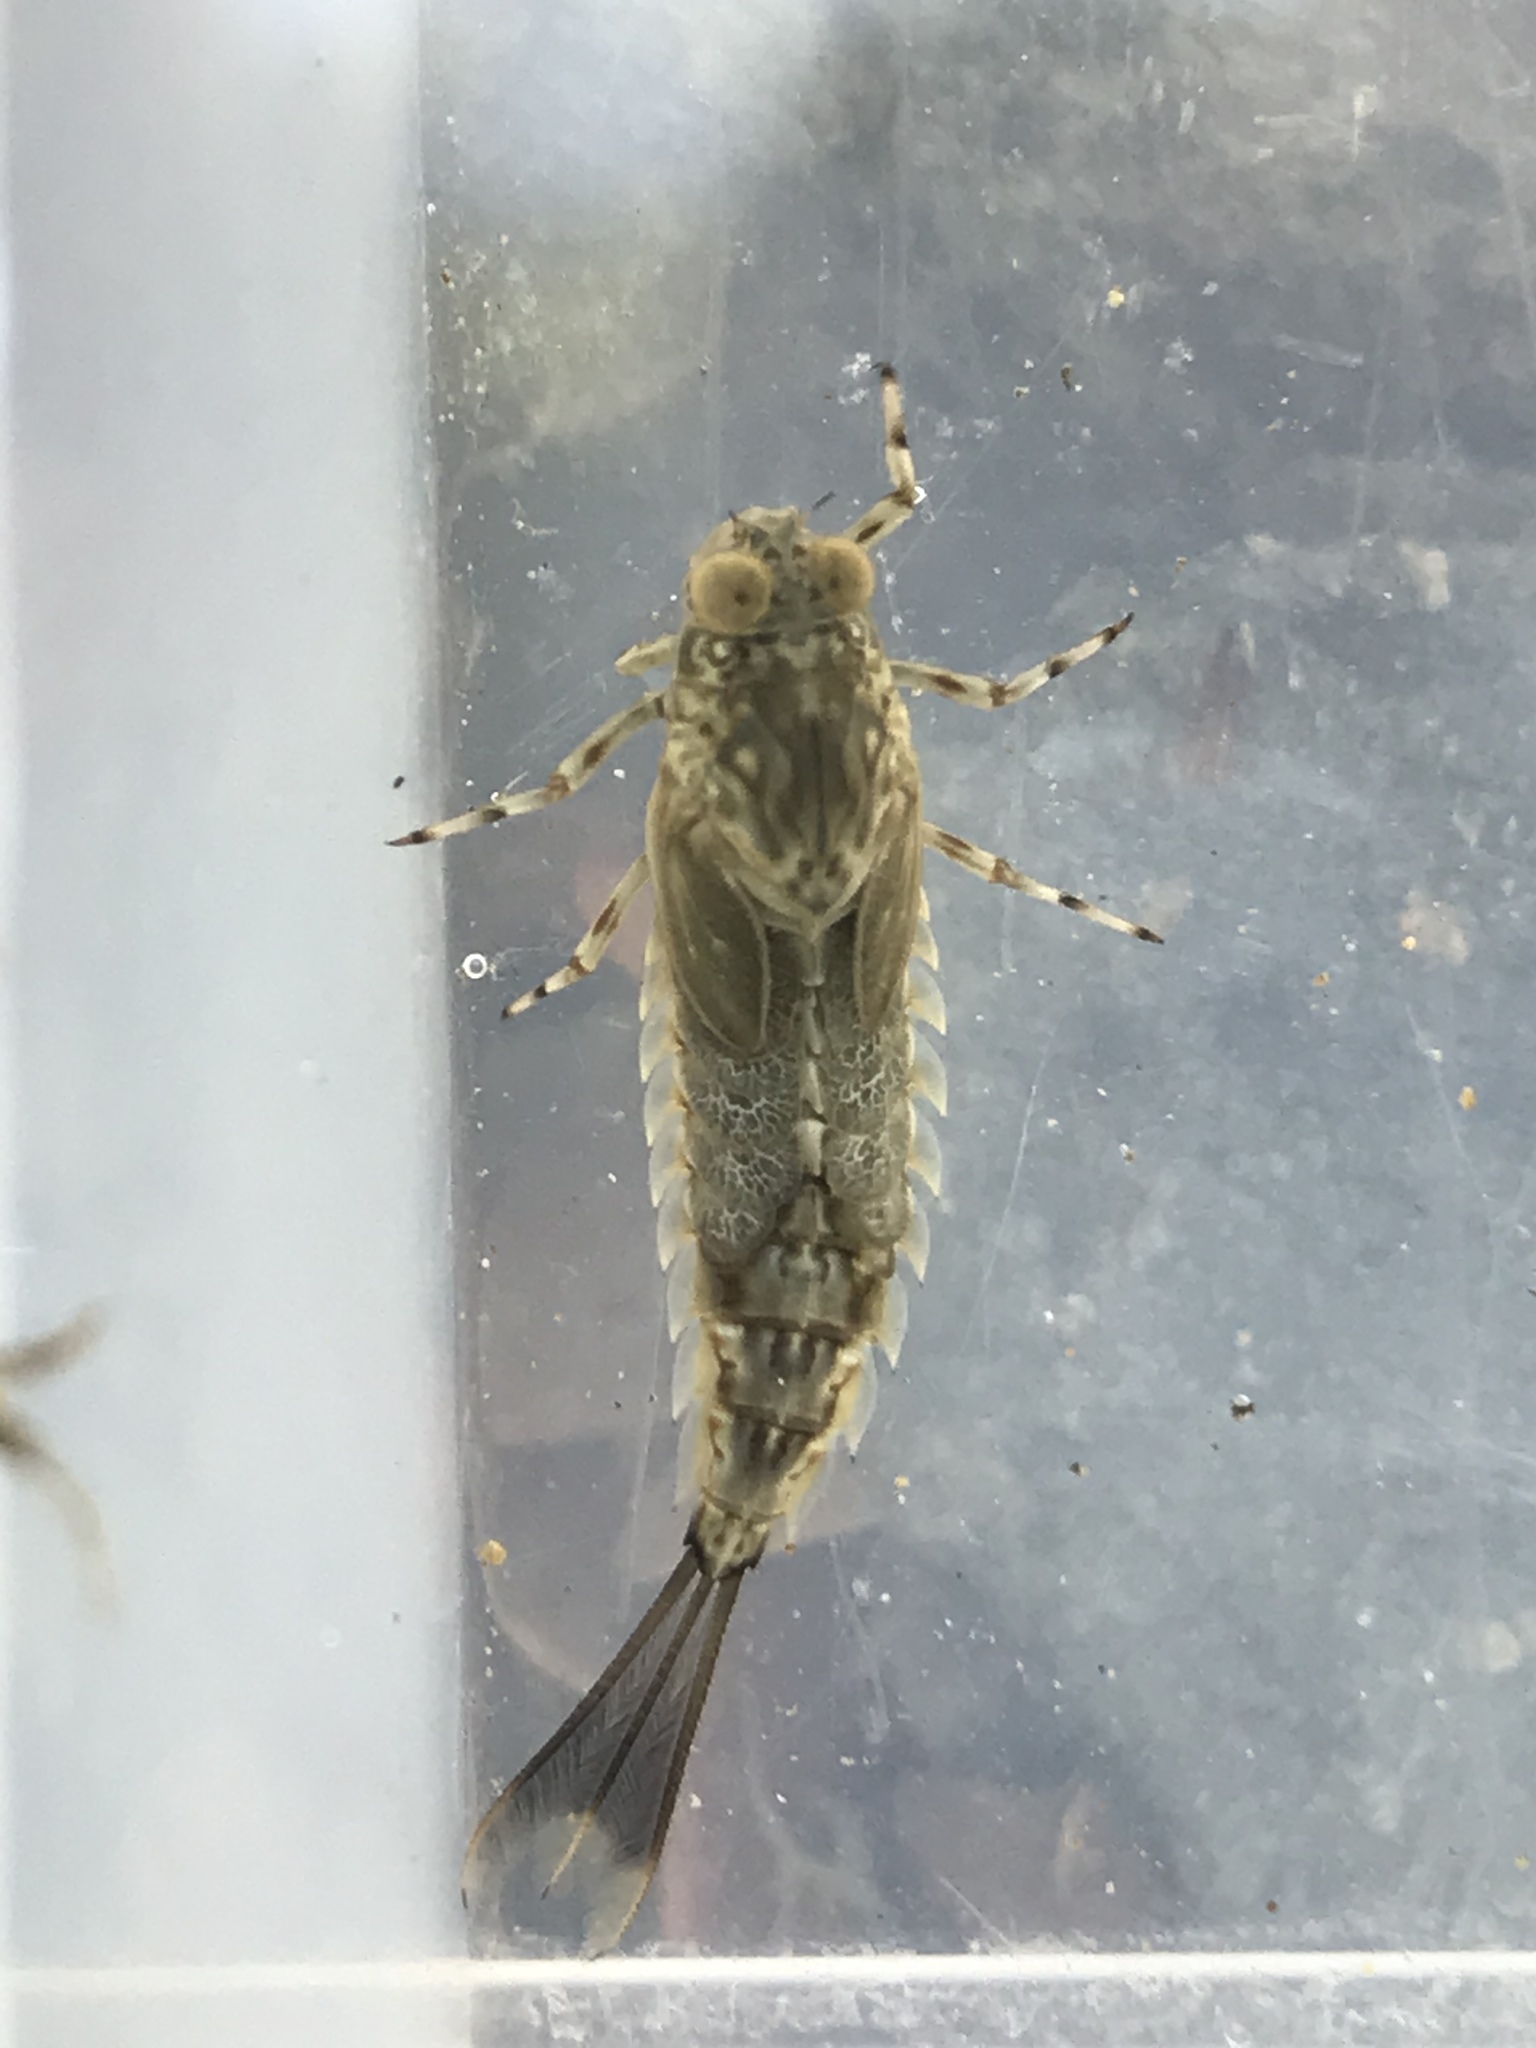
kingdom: Animalia
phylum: Arthropoda
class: Insecta
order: Ephemeroptera
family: Oniscigastridae
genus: Oniscigaster
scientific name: Oniscigaster distans
